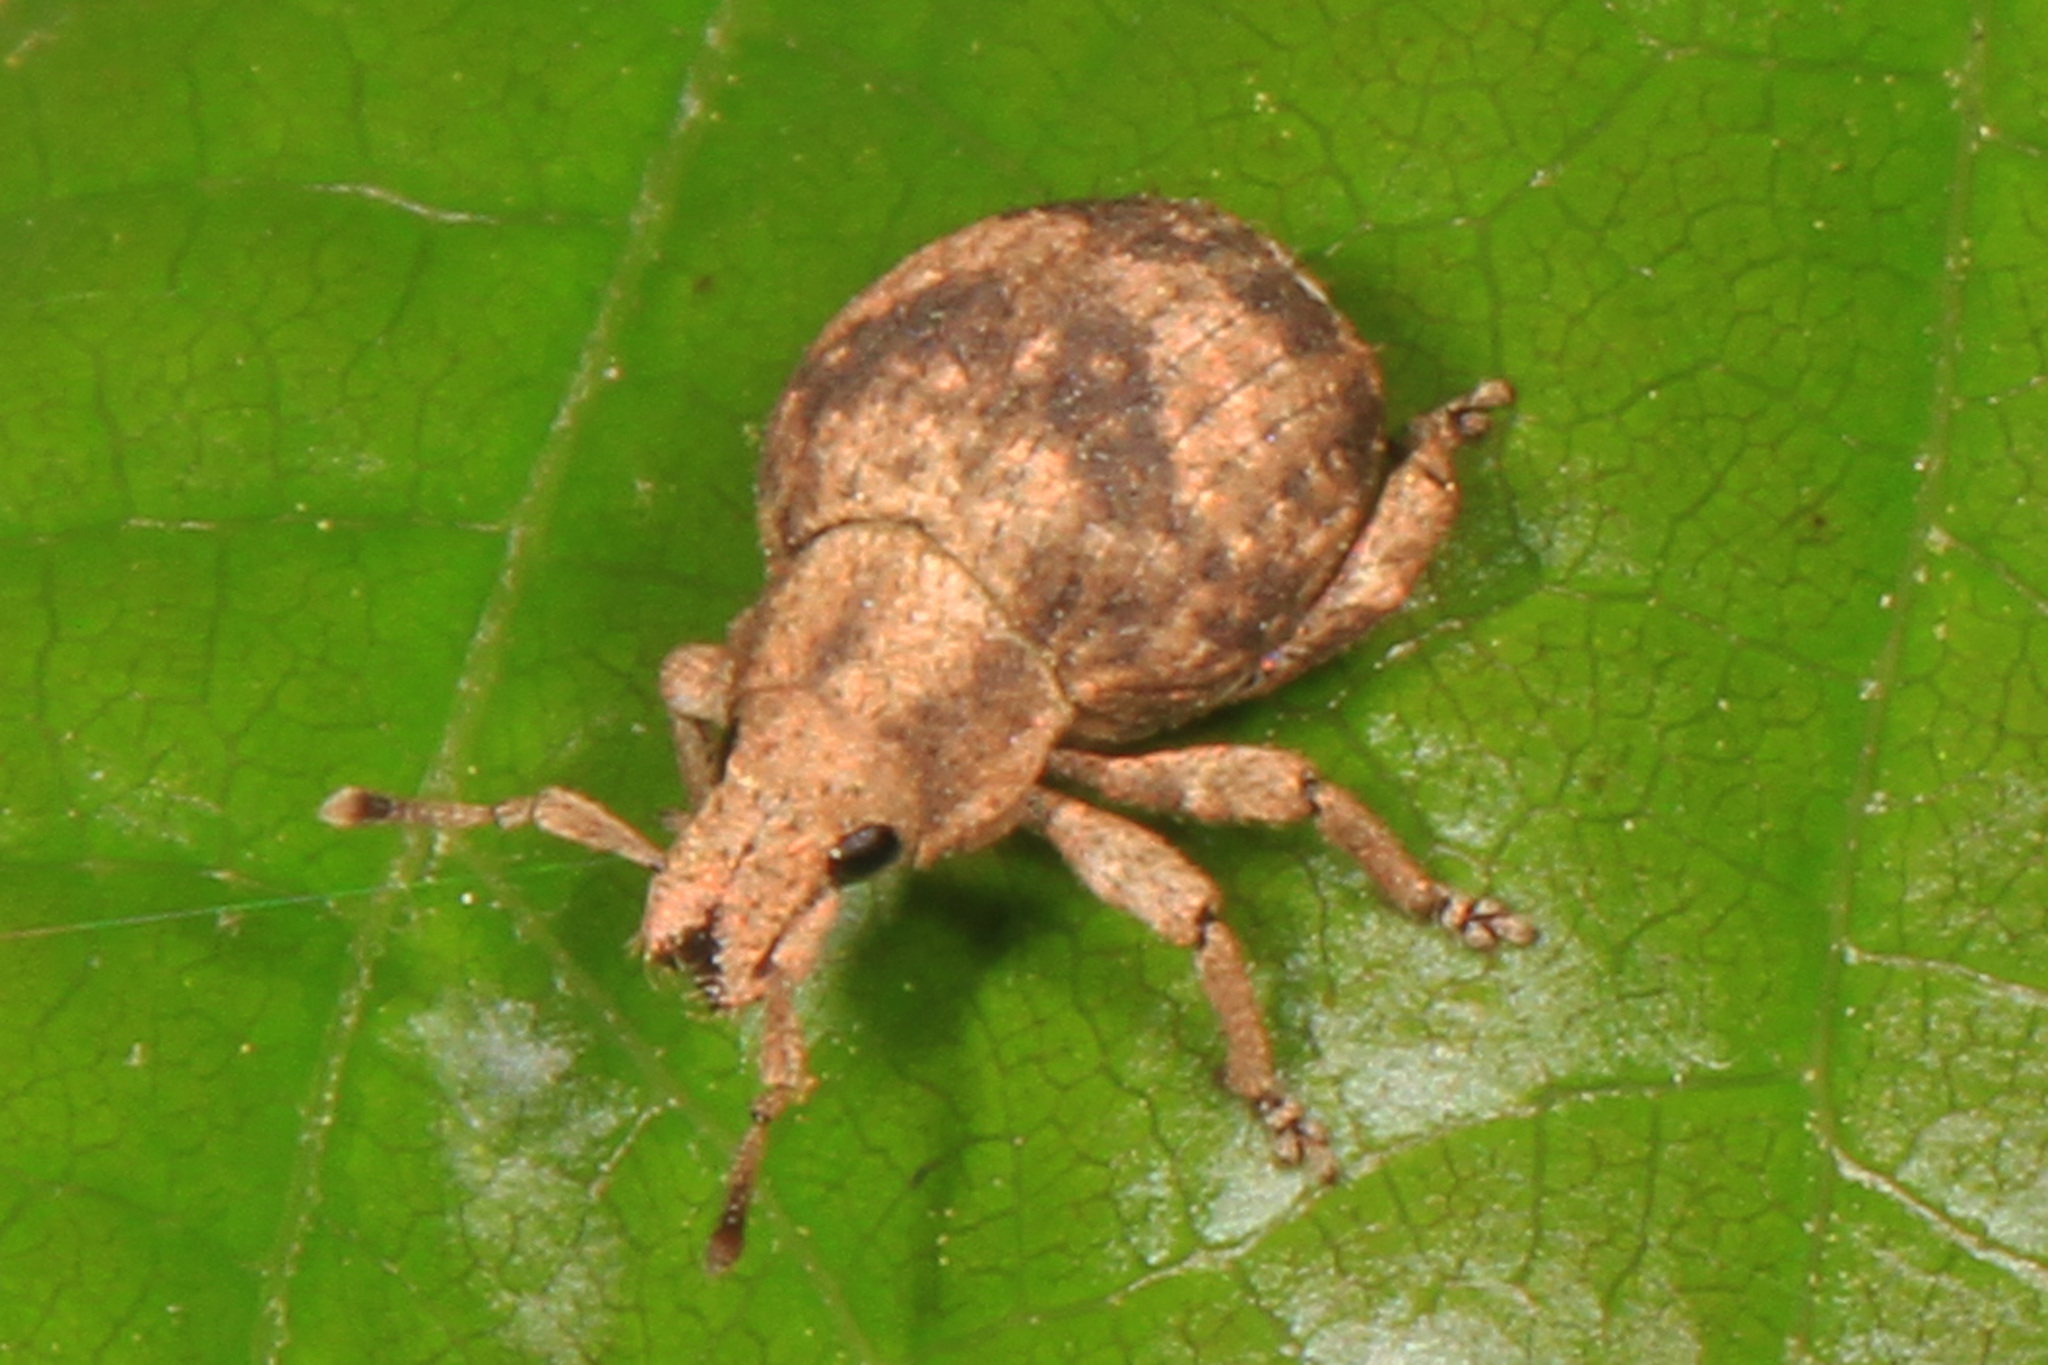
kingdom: Animalia
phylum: Arthropoda
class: Insecta
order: Coleoptera
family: Curculionidae
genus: Pseudocneorhinus
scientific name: Pseudocneorhinus bifasciatus
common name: Two-banded japanese weevil
